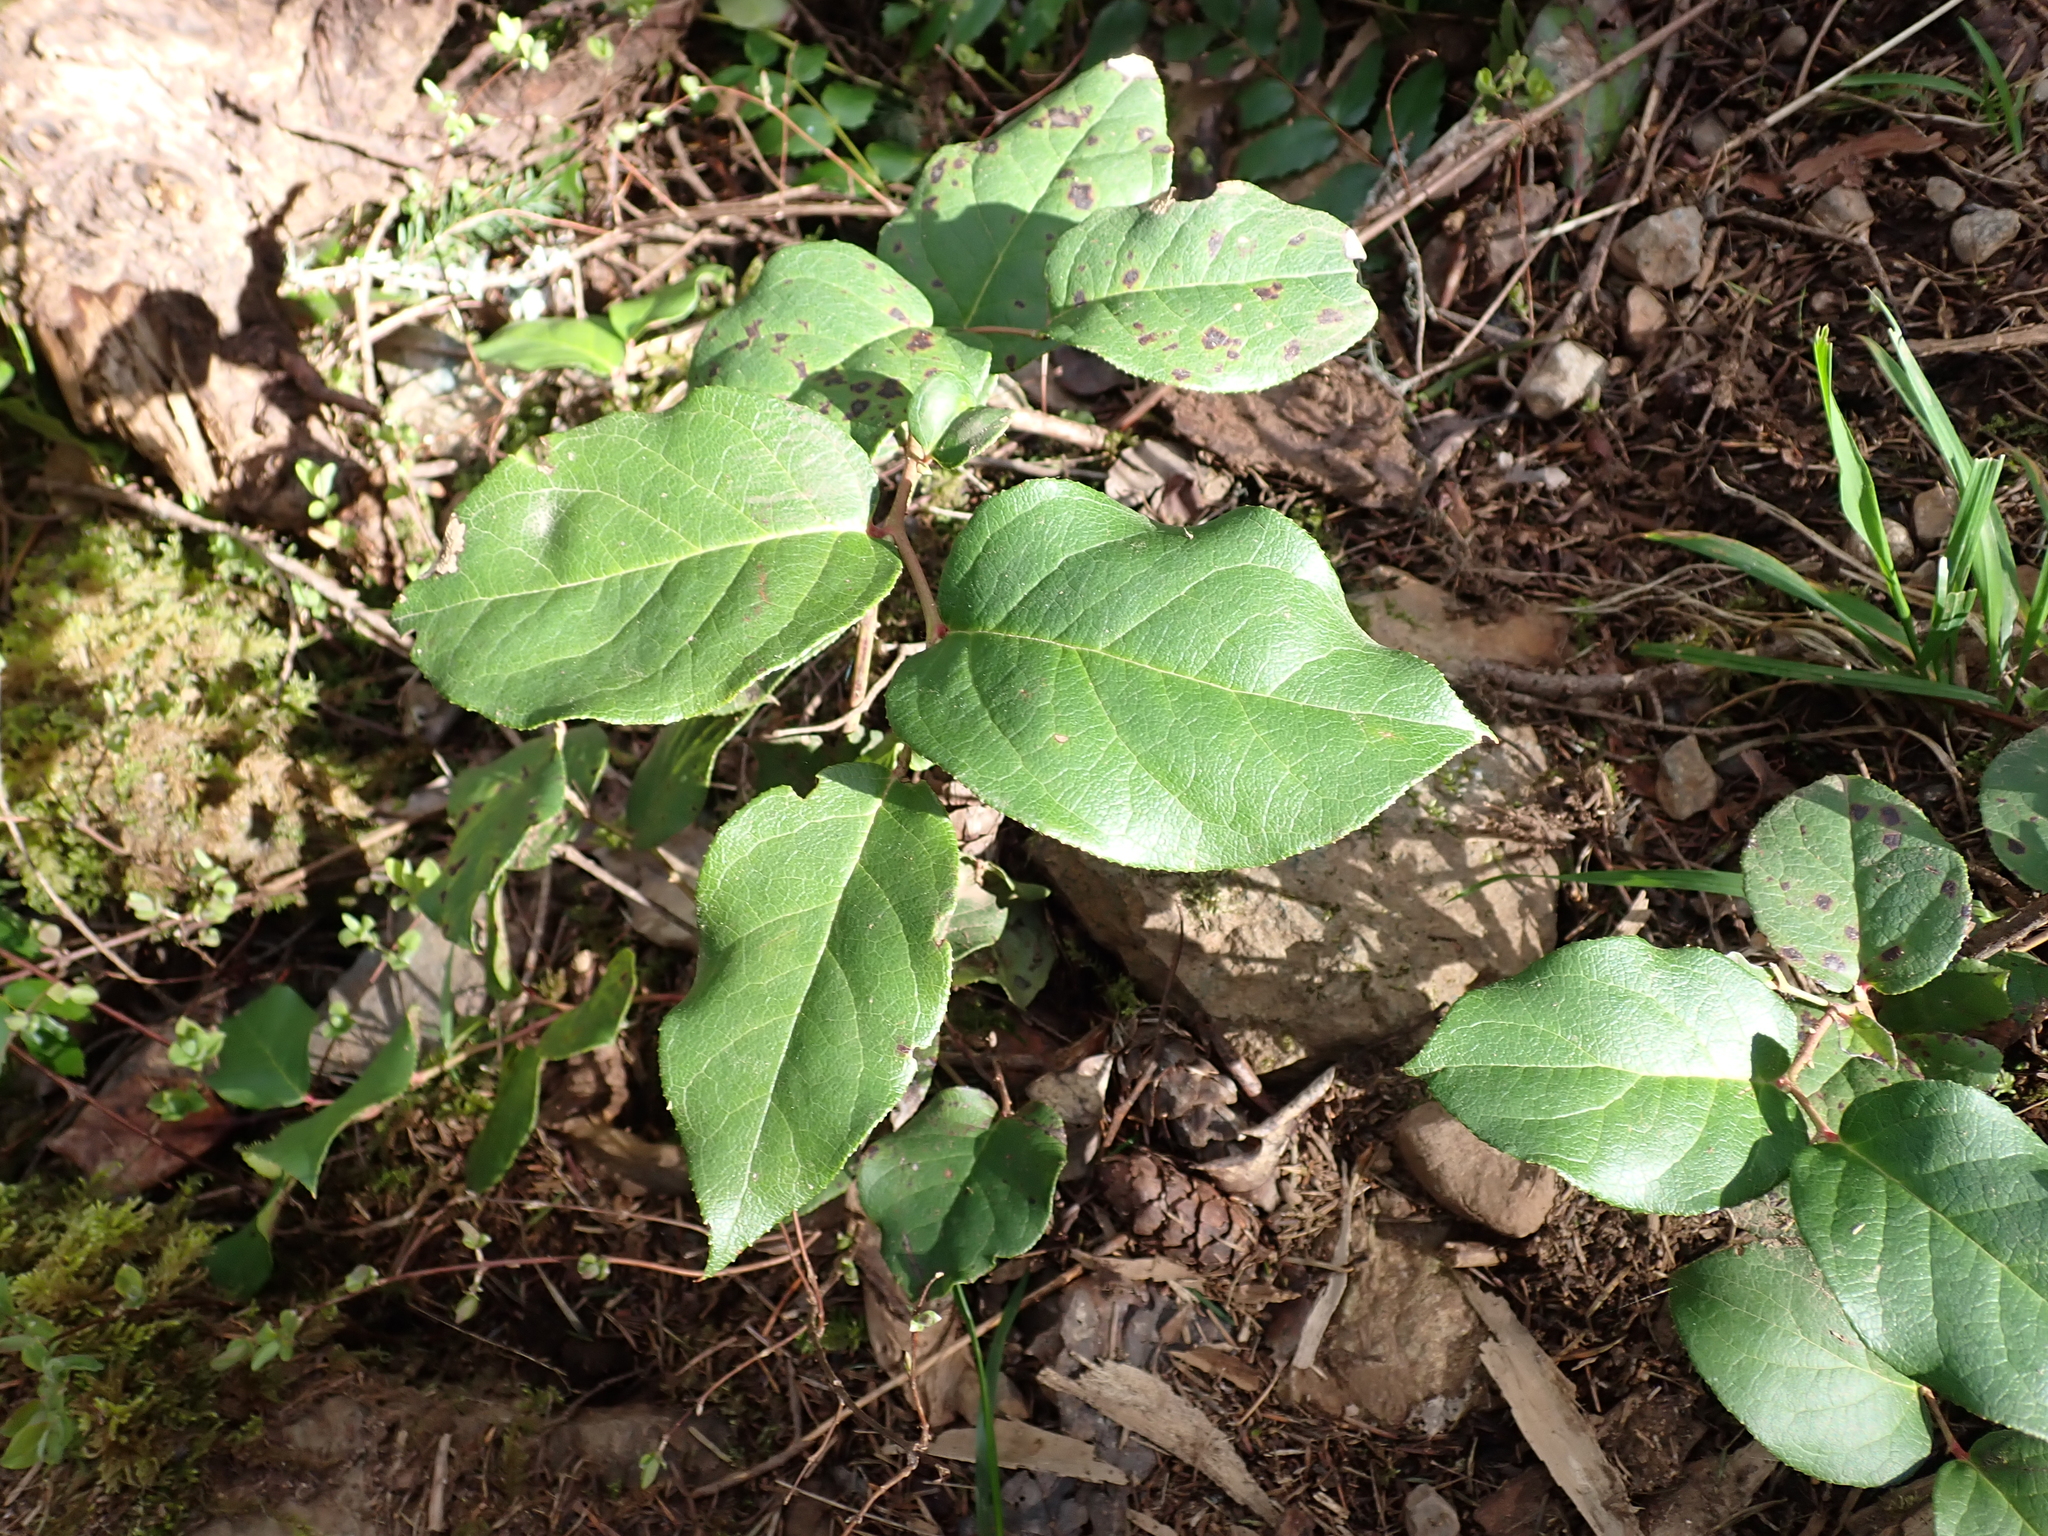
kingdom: Plantae
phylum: Tracheophyta
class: Magnoliopsida
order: Ericales
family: Ericaceae
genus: Gaultheria
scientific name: Gaultheria shallon
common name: Shallon
